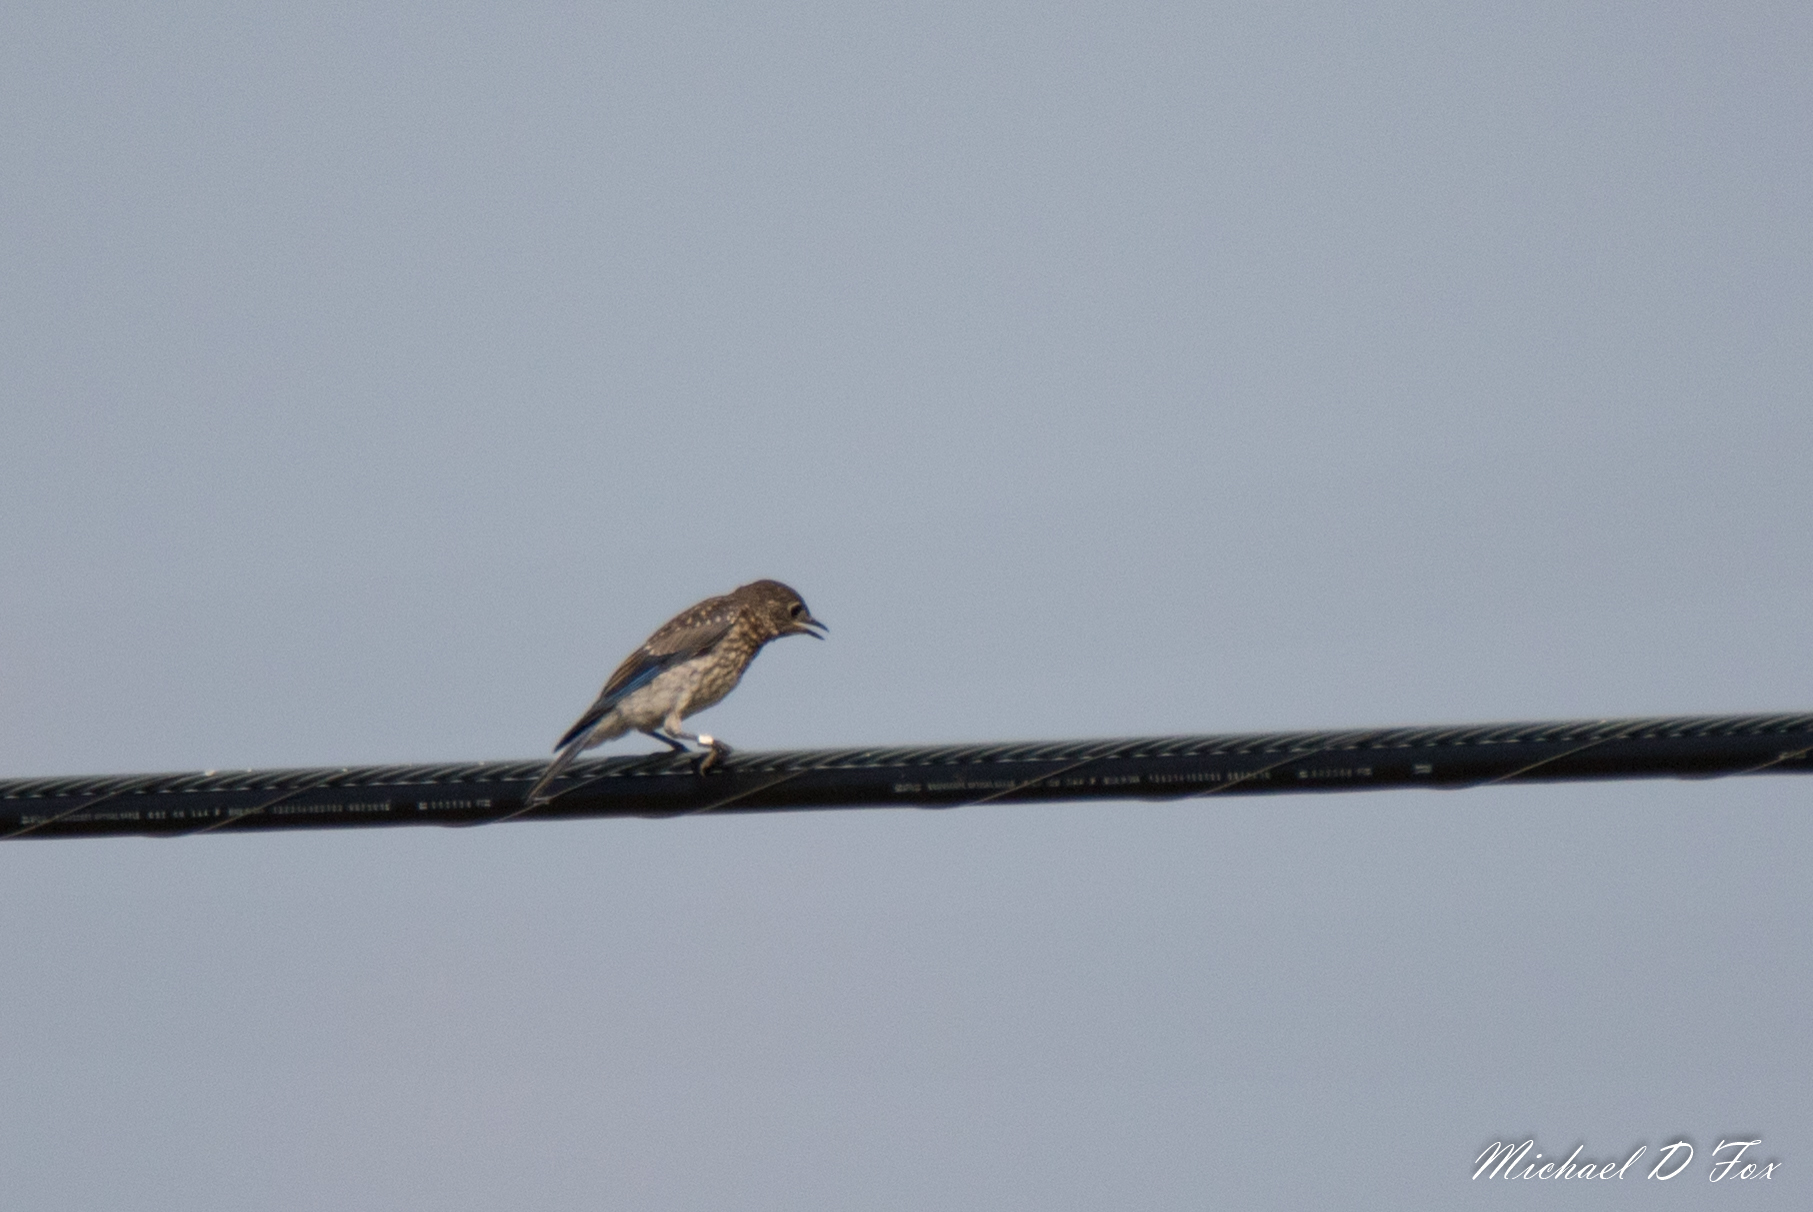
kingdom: Animalia
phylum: Chordata
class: Aves
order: Passeriformes
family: Turdidae
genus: Sialia
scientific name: Sialia sialis
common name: Eastern bluebird
